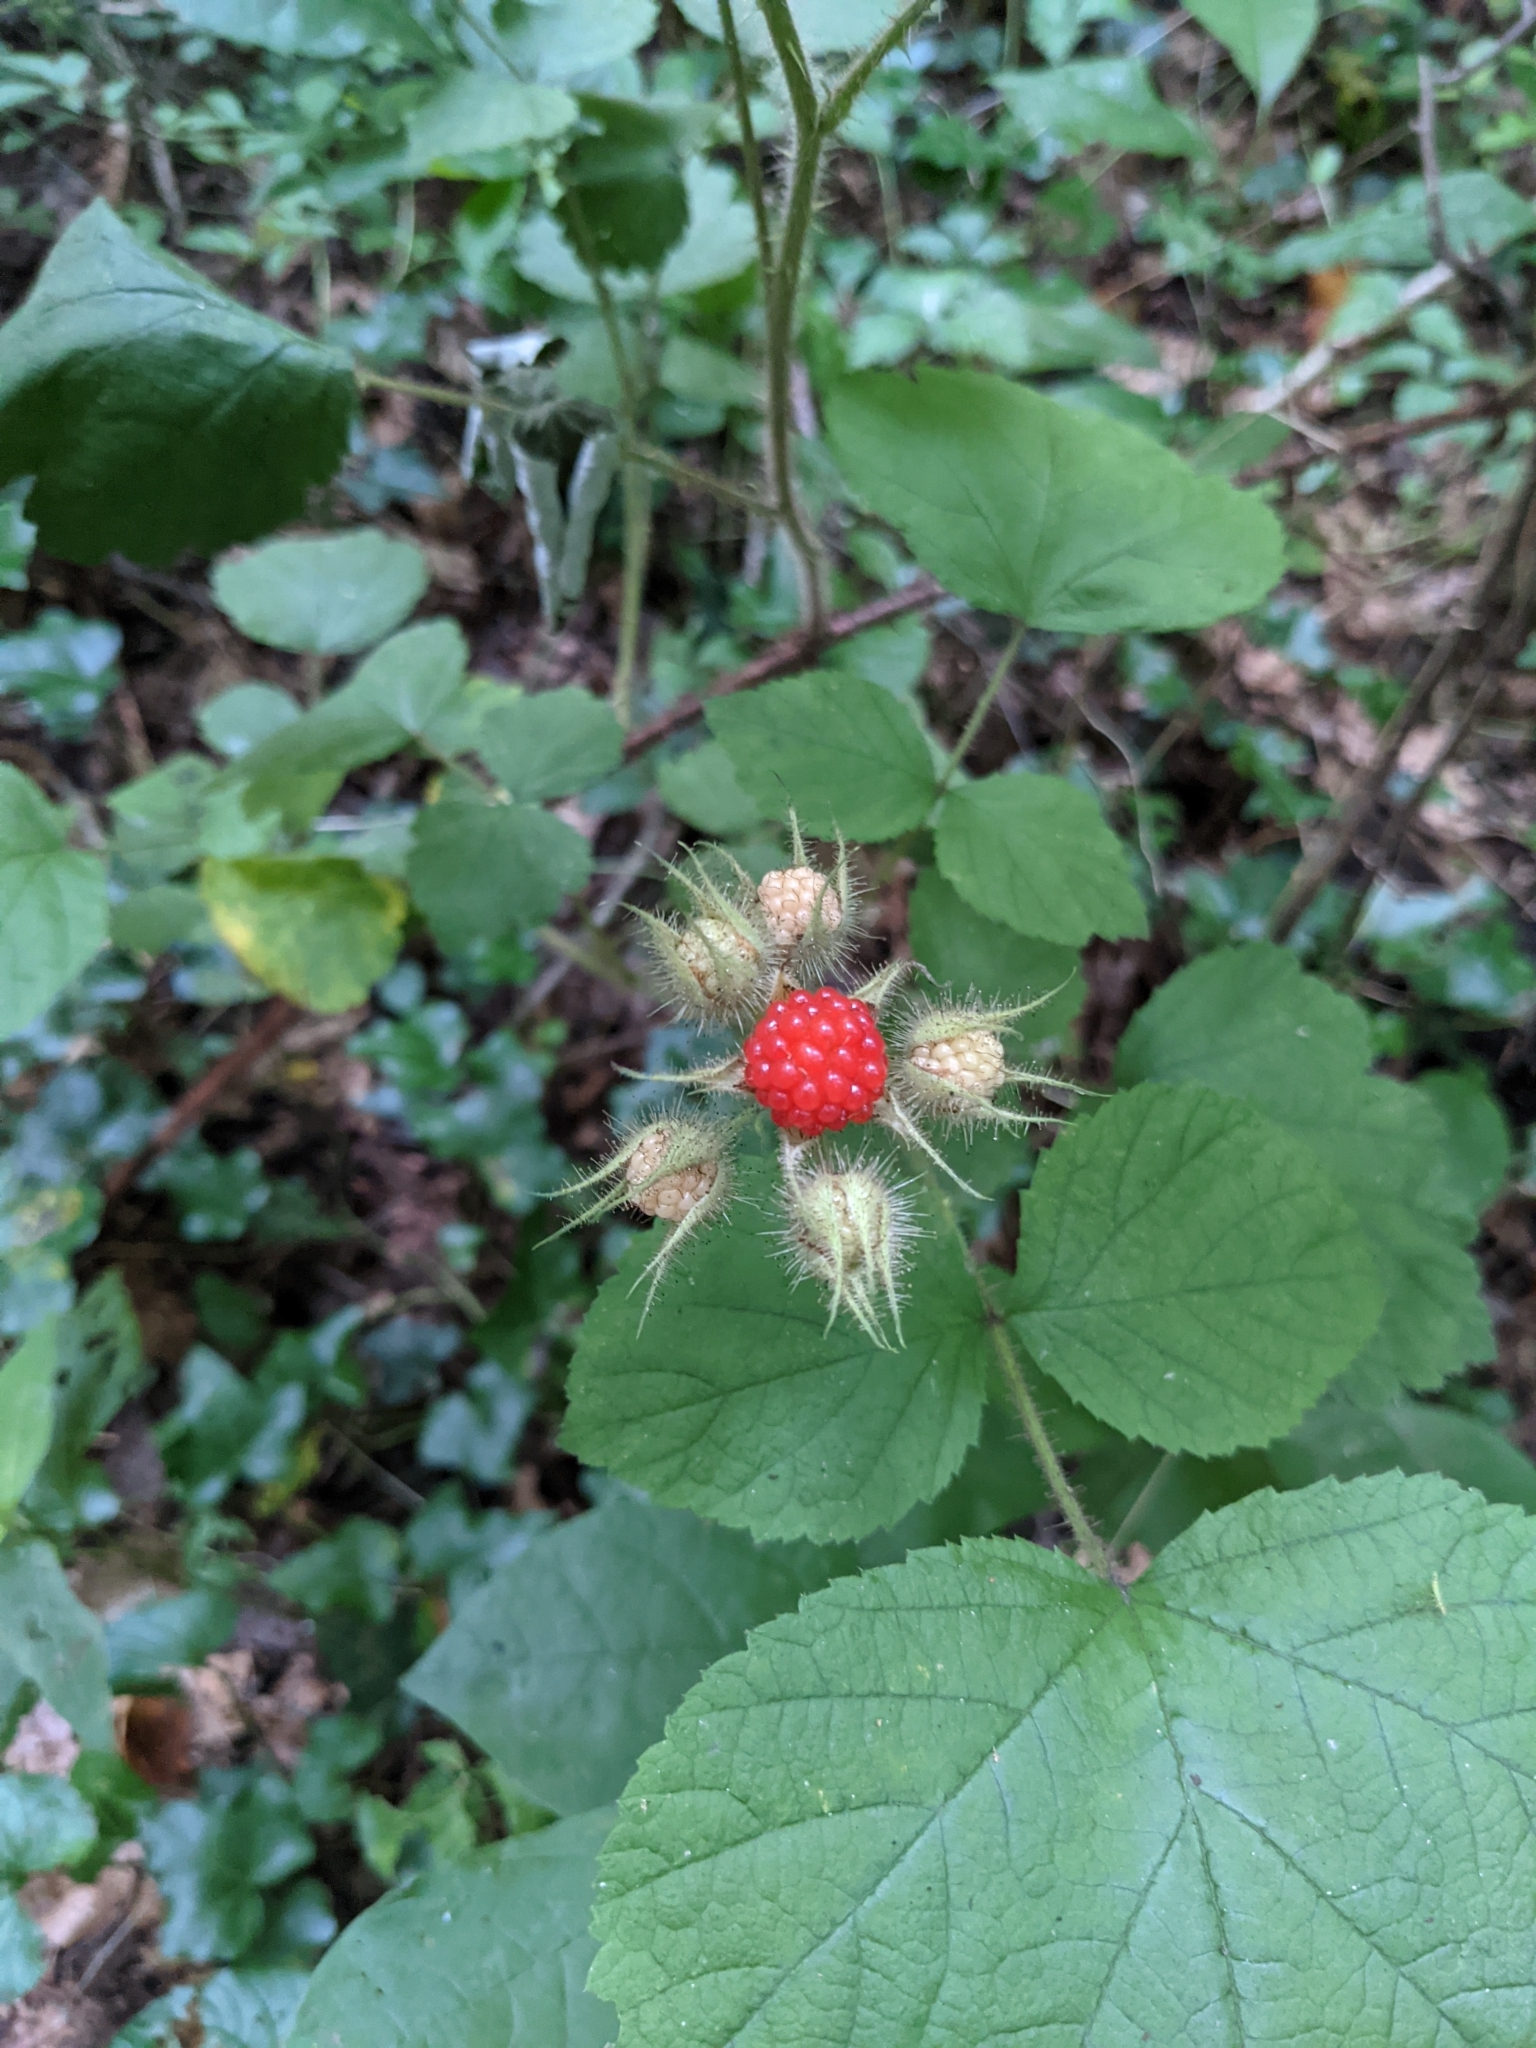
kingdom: Plantae
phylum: Tracheophyta
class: Magnoliopsida
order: Rosales
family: Rosaceae
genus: Rubus
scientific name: Rubus phoenicolasius
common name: Japanese wineberry
